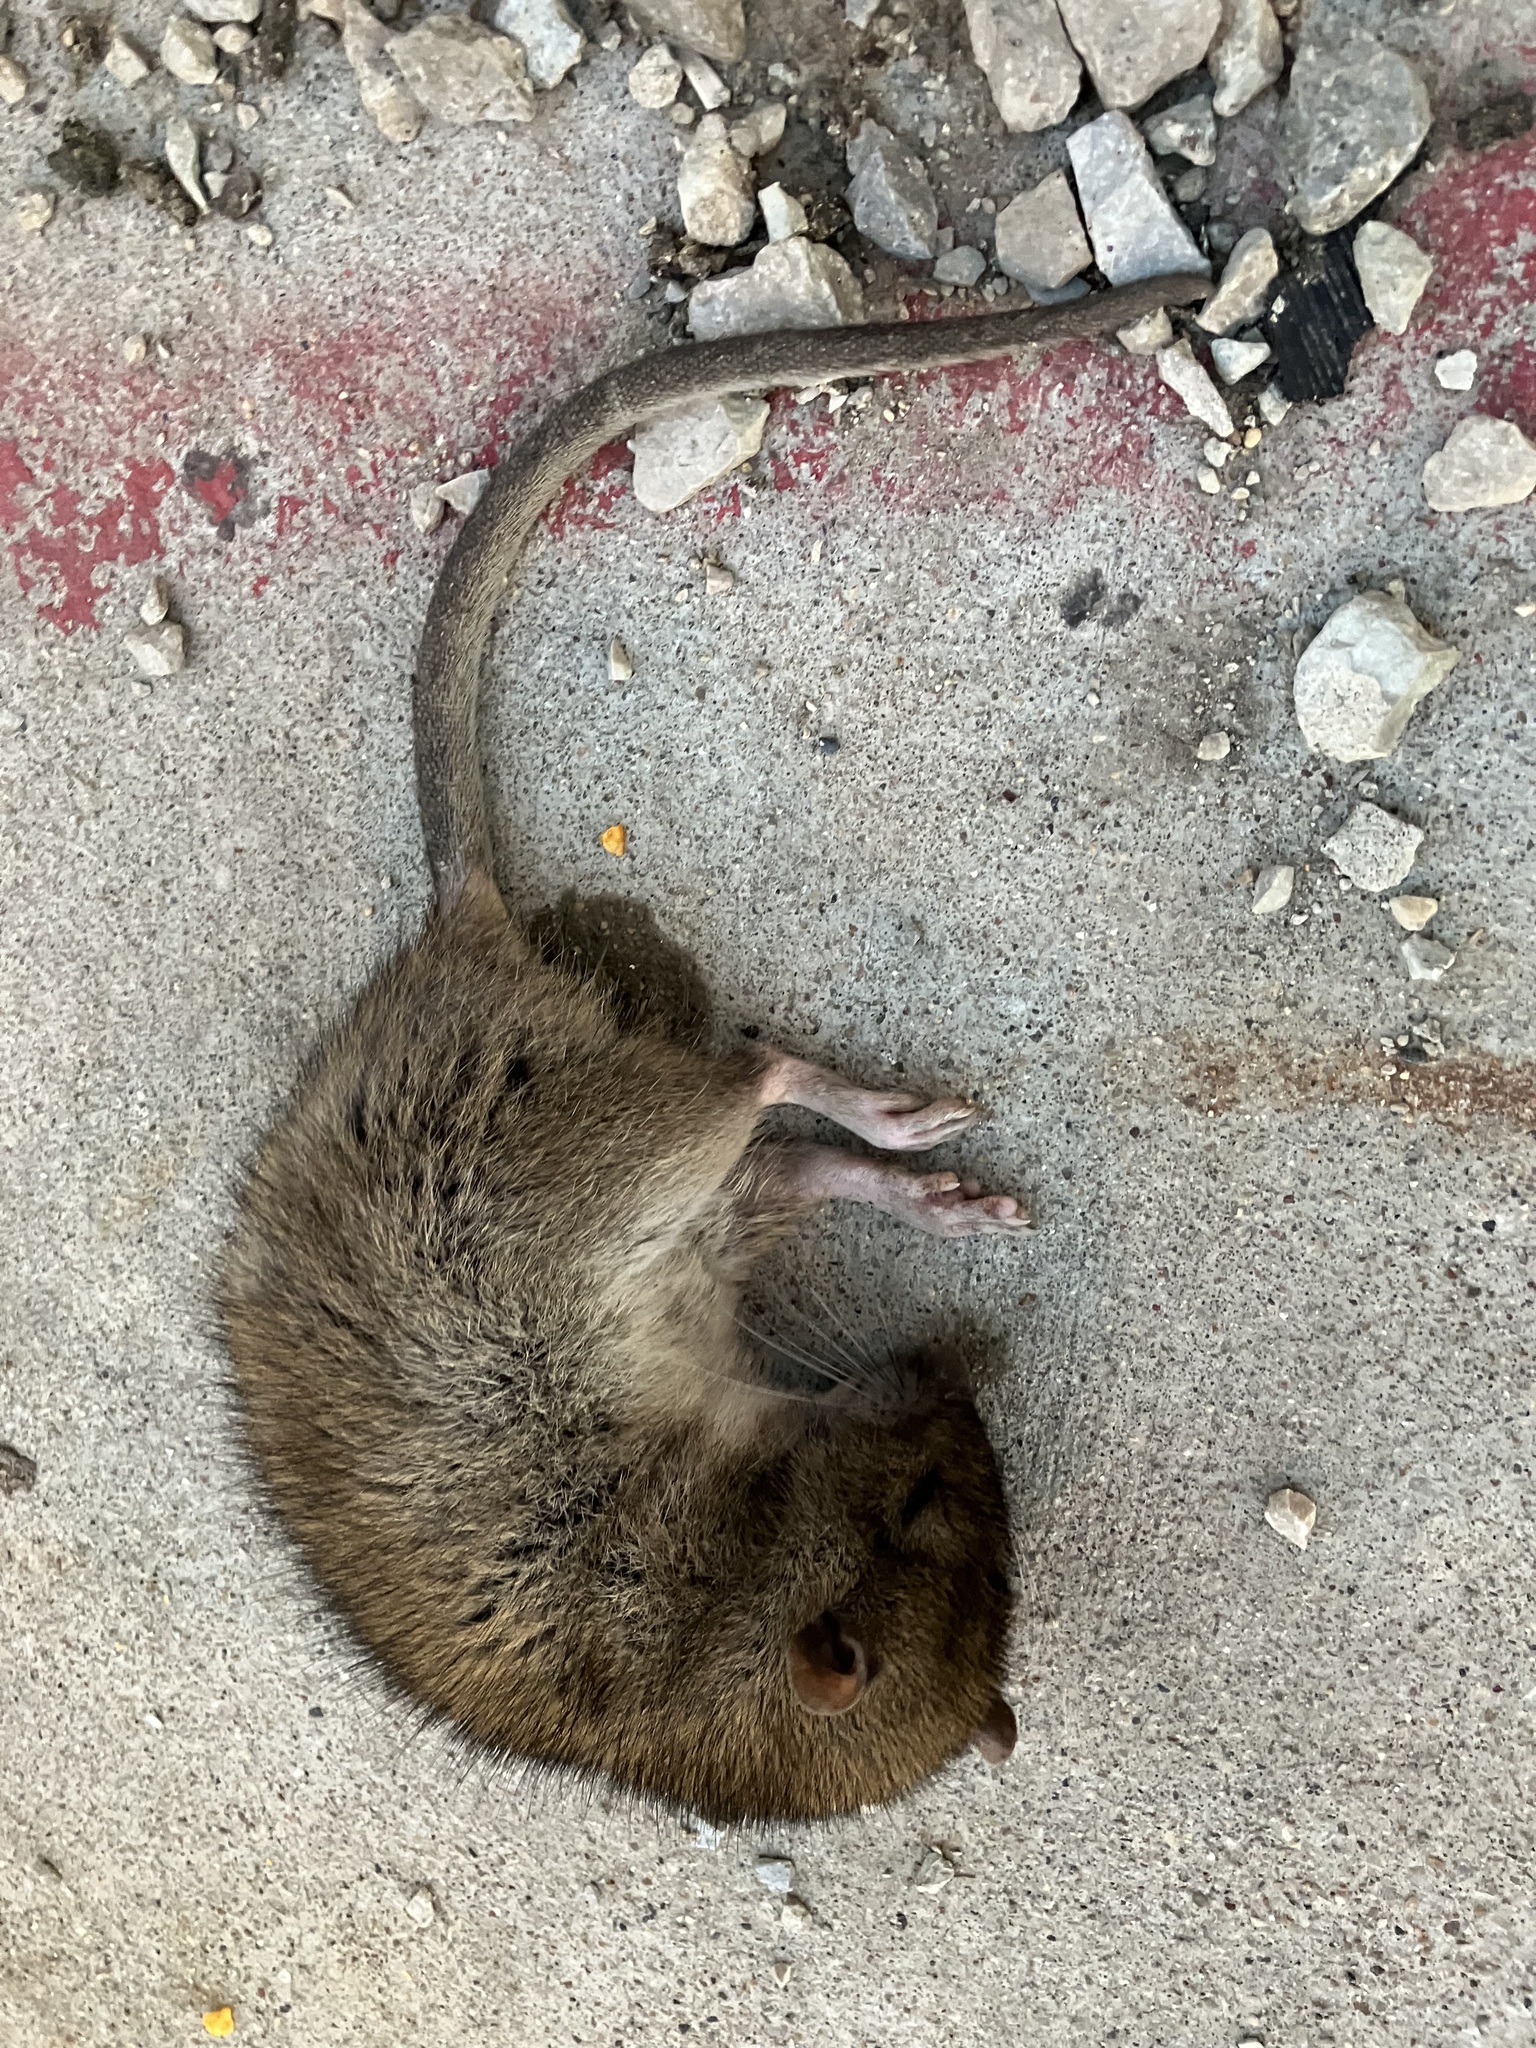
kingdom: Animalia
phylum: Chordata
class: Mammalia
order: Rodentia
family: Muridae
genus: Rattus
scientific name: Rattus norvegicus
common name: Brown rat
